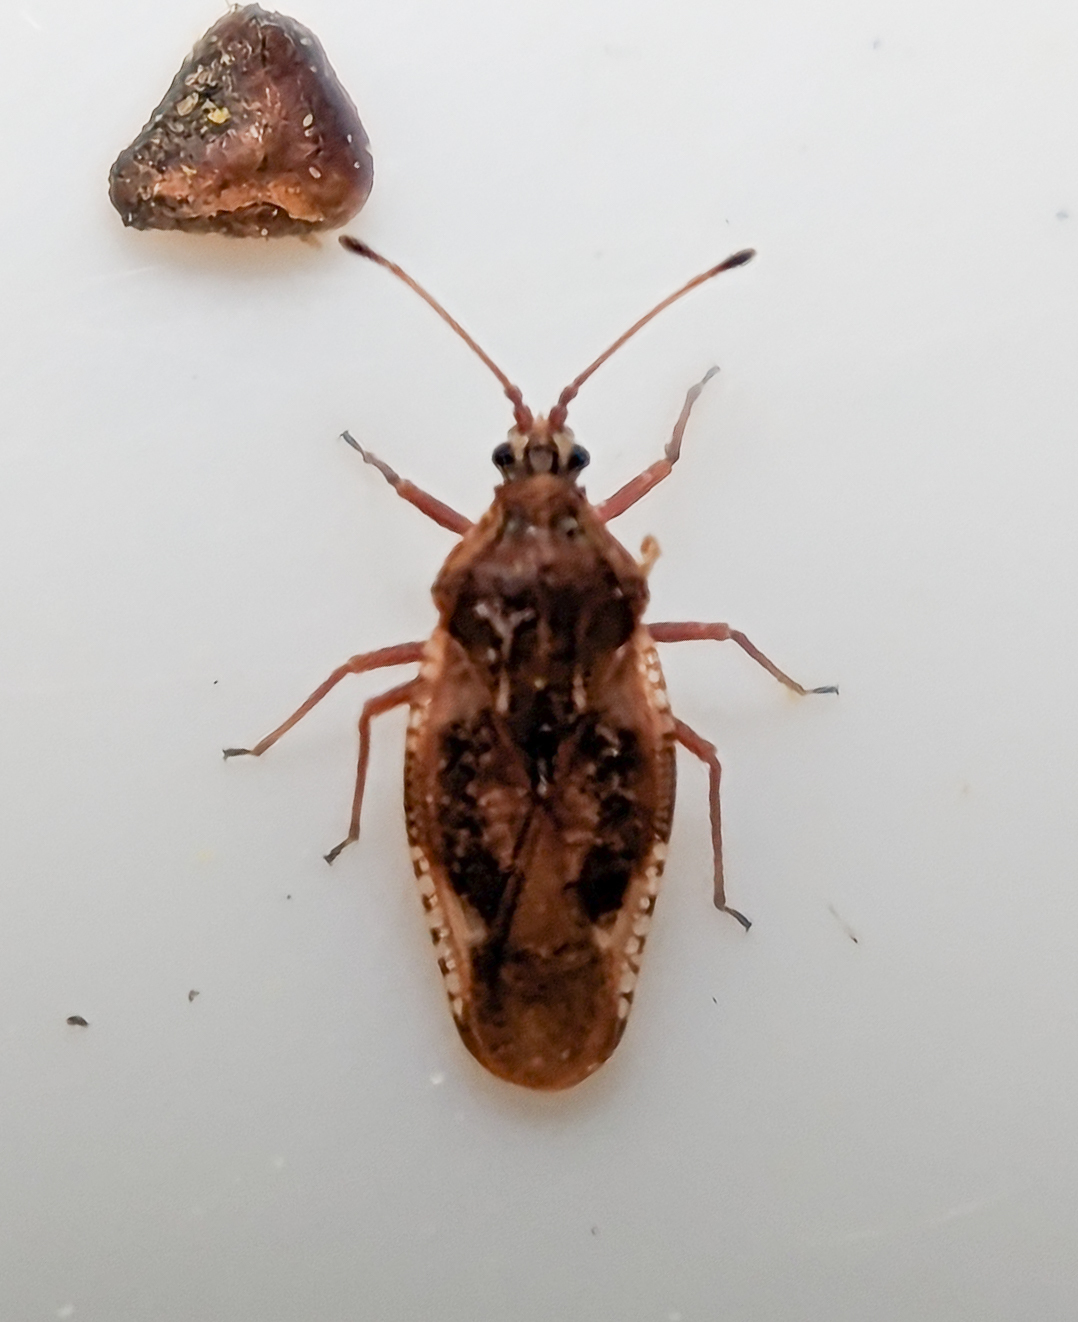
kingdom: Animalia
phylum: Arthropoda
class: Insecta
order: Hemiptera
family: Tingidae
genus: Physatocheila
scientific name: Physatocheila dumetorum
